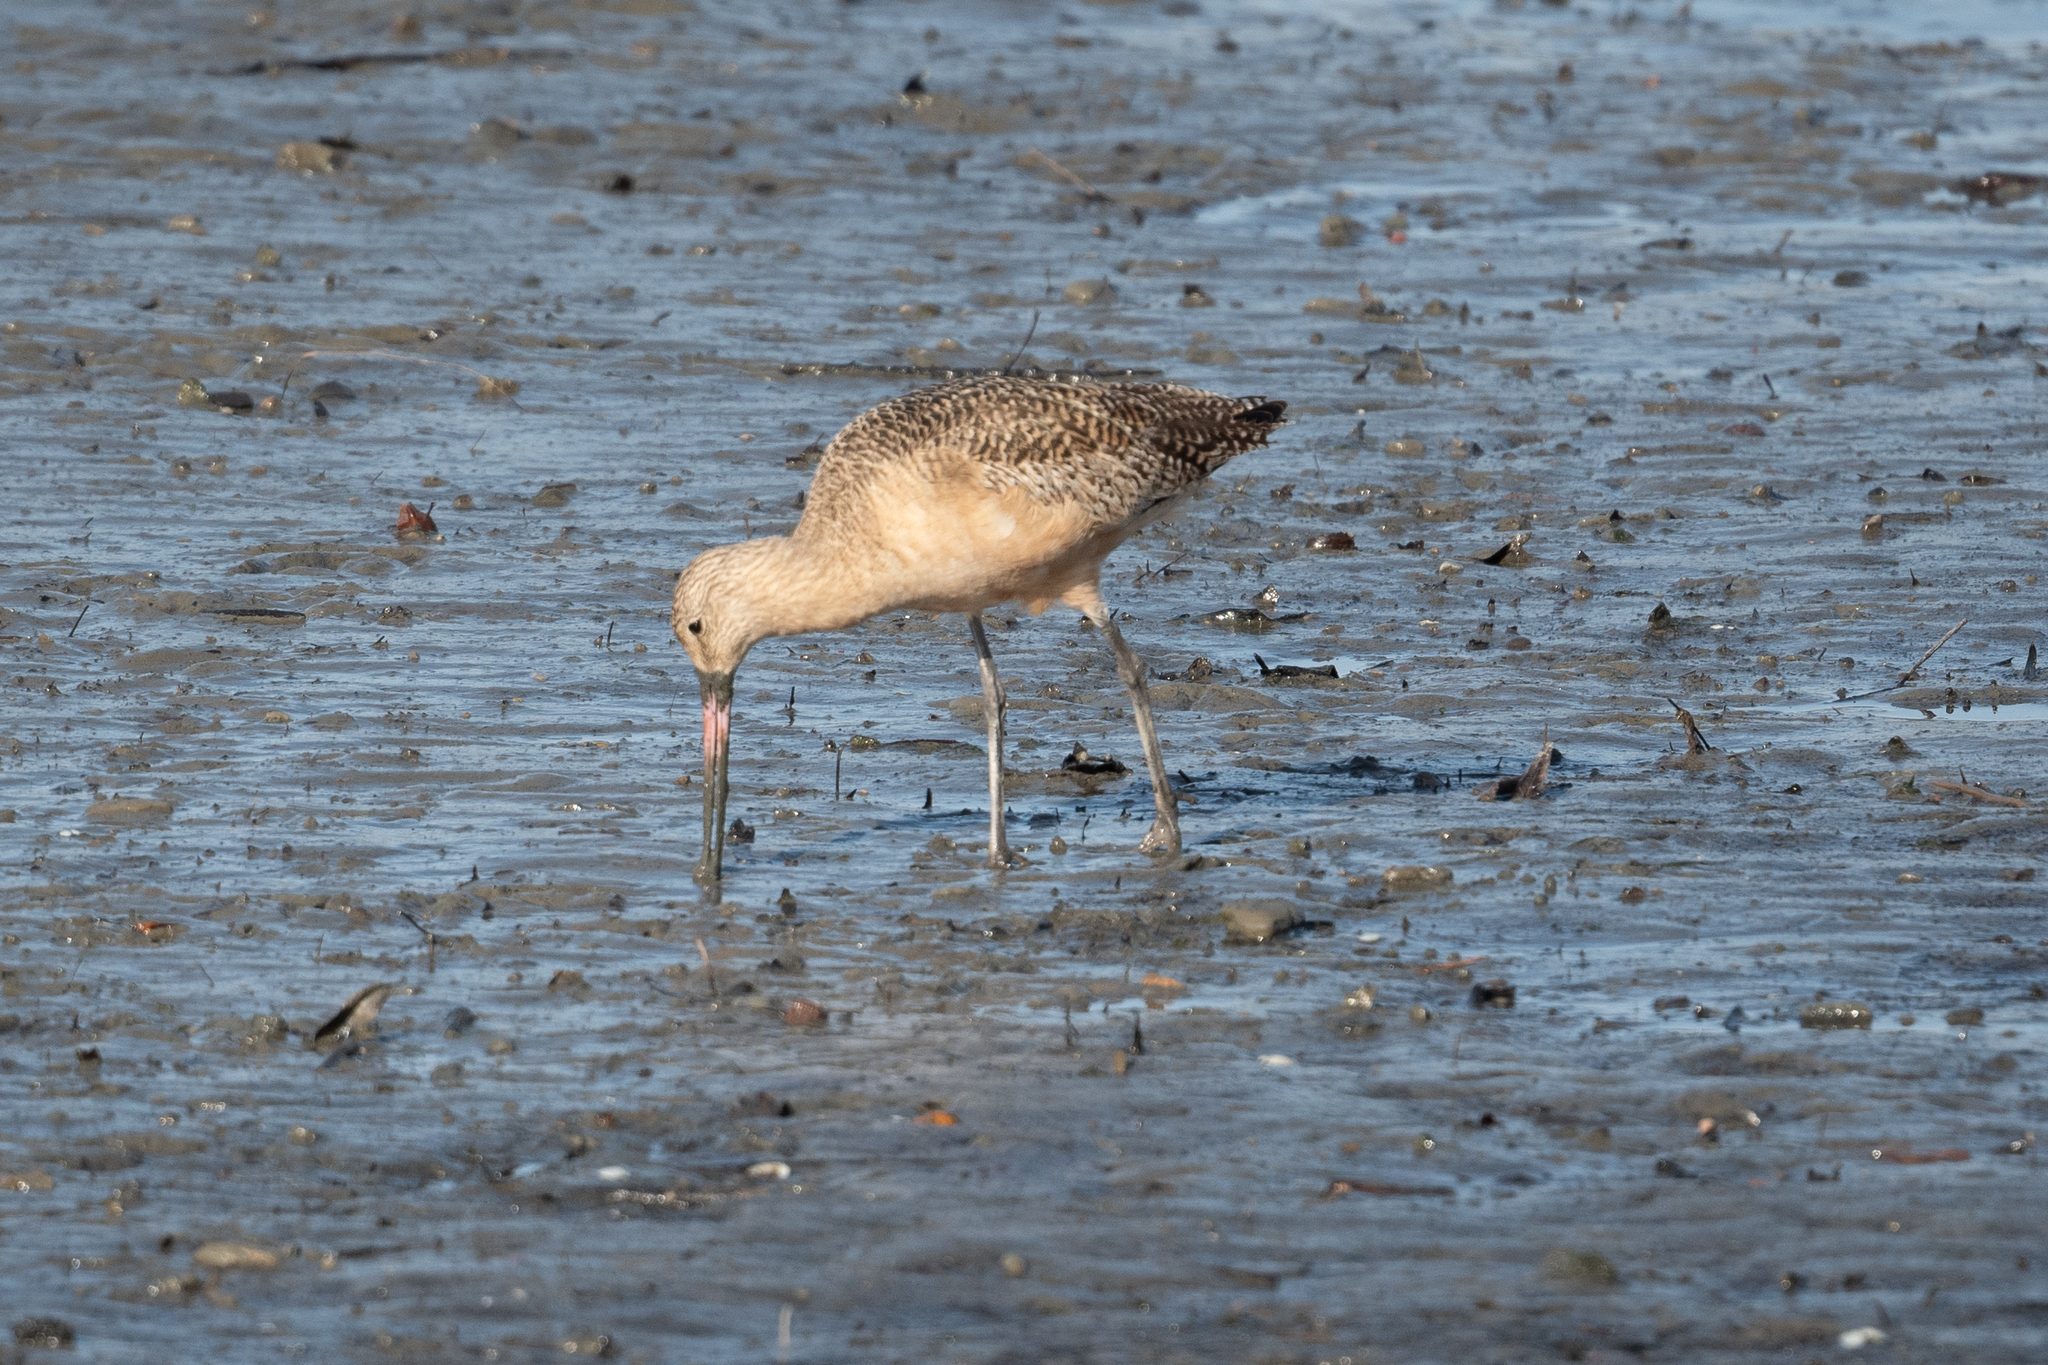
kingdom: Animalia
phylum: Chordata
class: Aves
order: Charadriiformes
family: Scolopacidae
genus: Limosa
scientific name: Limosa fedoa
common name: Marbled godwit
